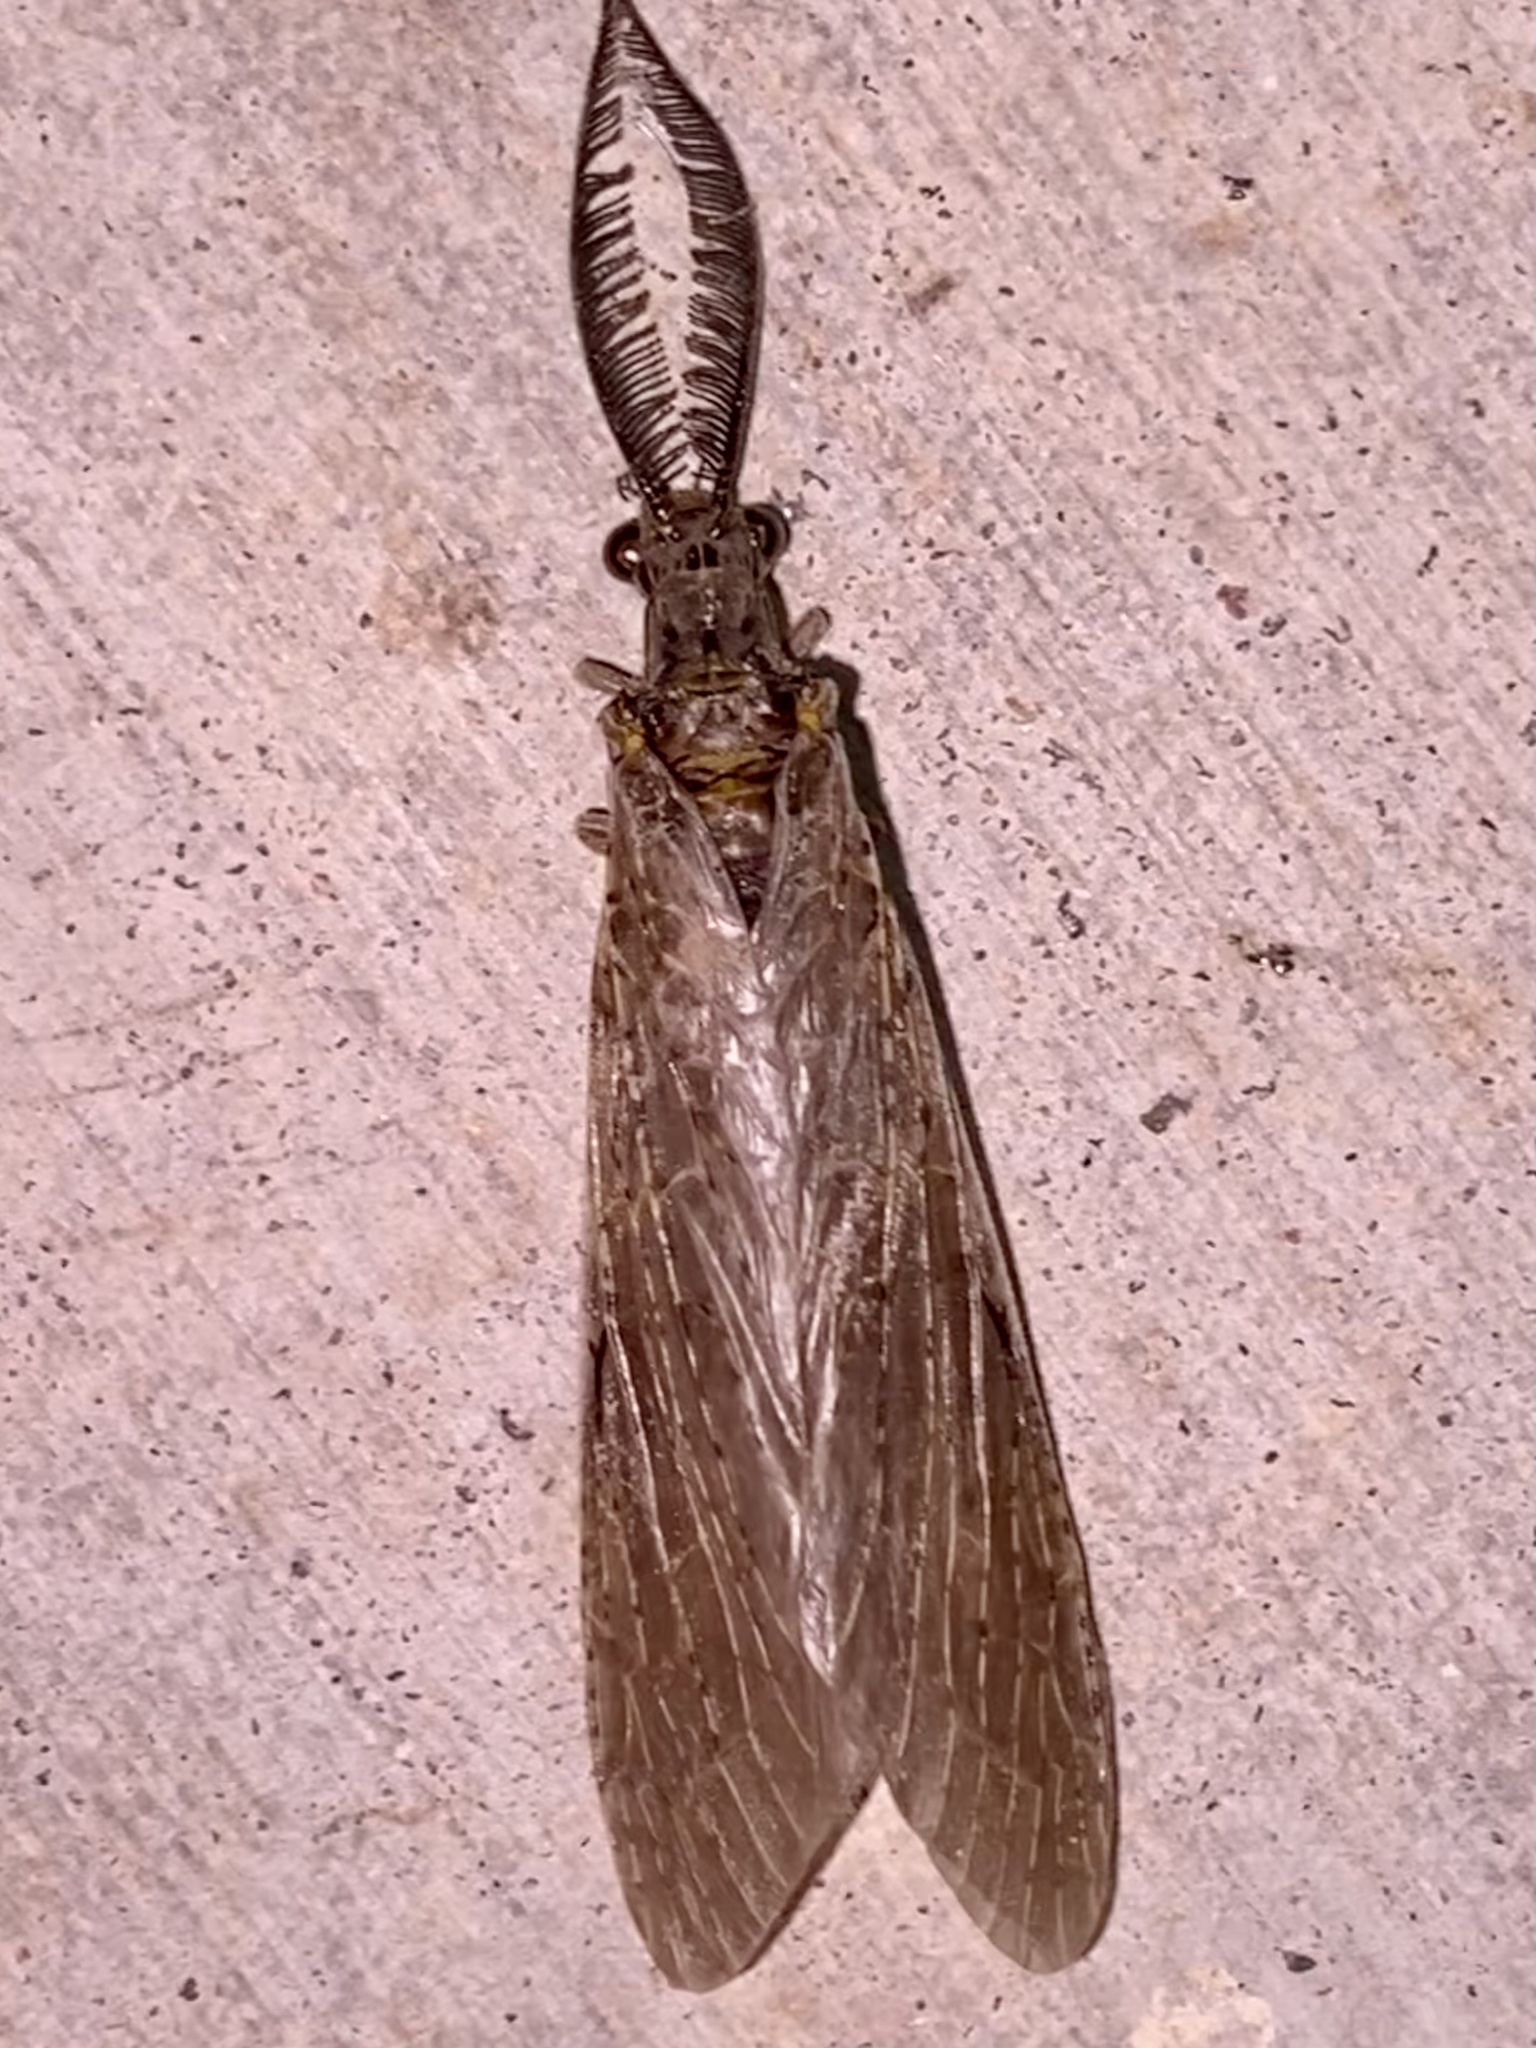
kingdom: Animalia
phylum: Arthropoda
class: Insecta
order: Megaloptera
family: Corydalidae
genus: Chauliodes
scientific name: Chauliodes rastricornis
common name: Spring fishfly
